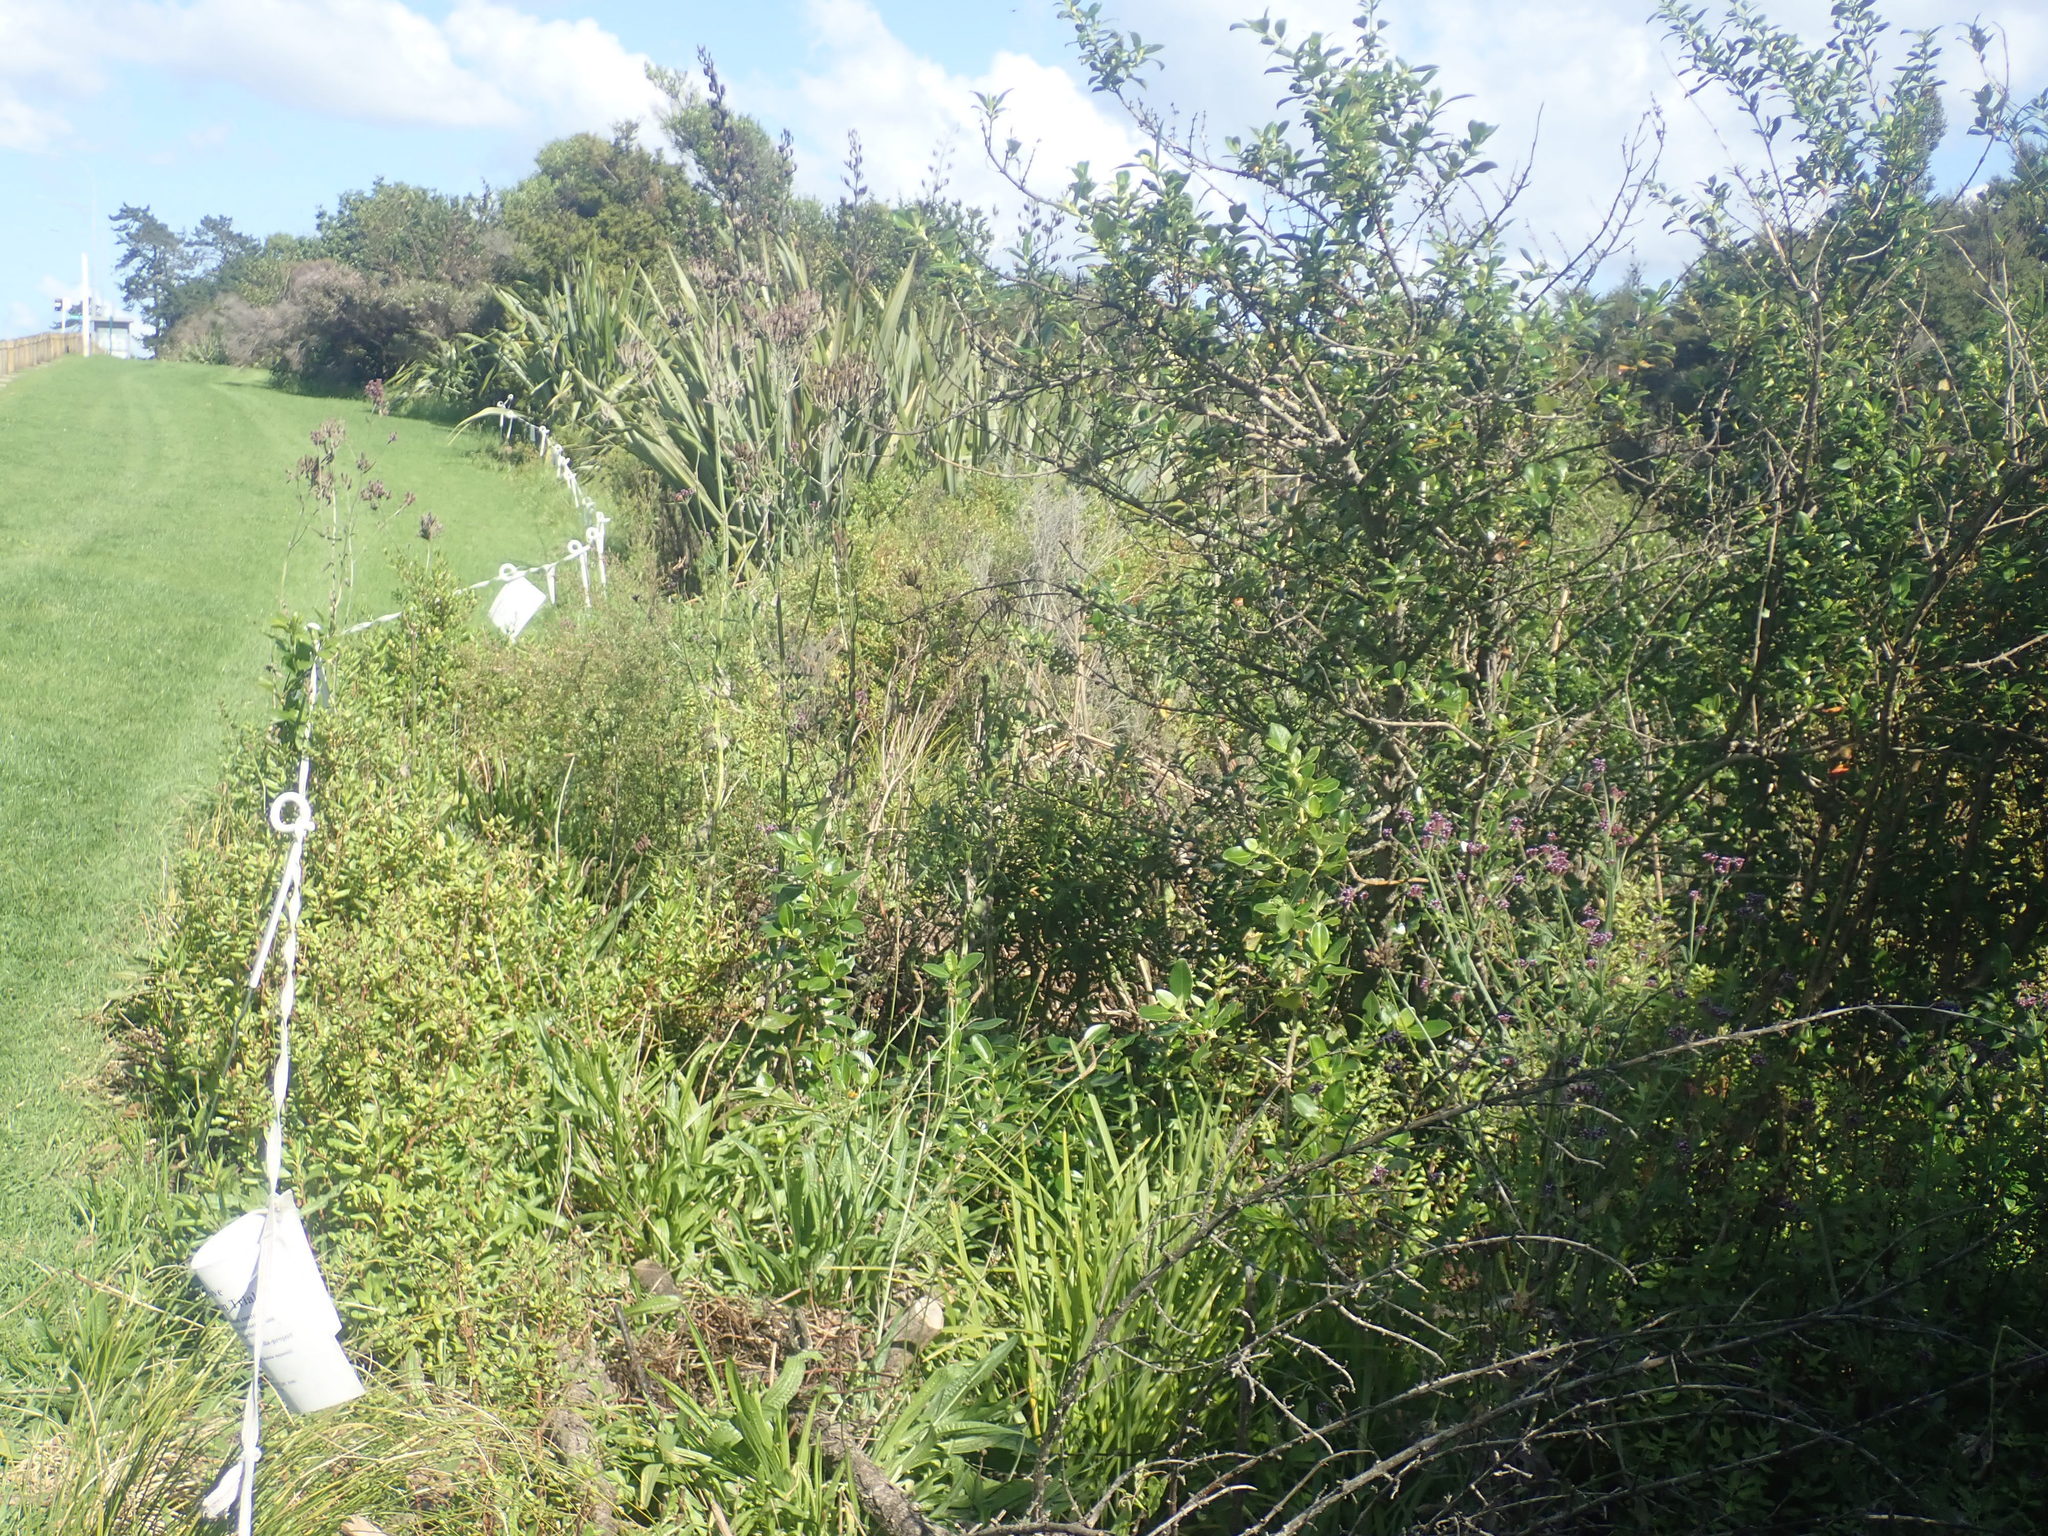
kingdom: Plantae
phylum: Tracheophyta
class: Magnoliopsida
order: Gentianales
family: Rubiaceae
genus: Coprosma
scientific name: Coprosma robusta
